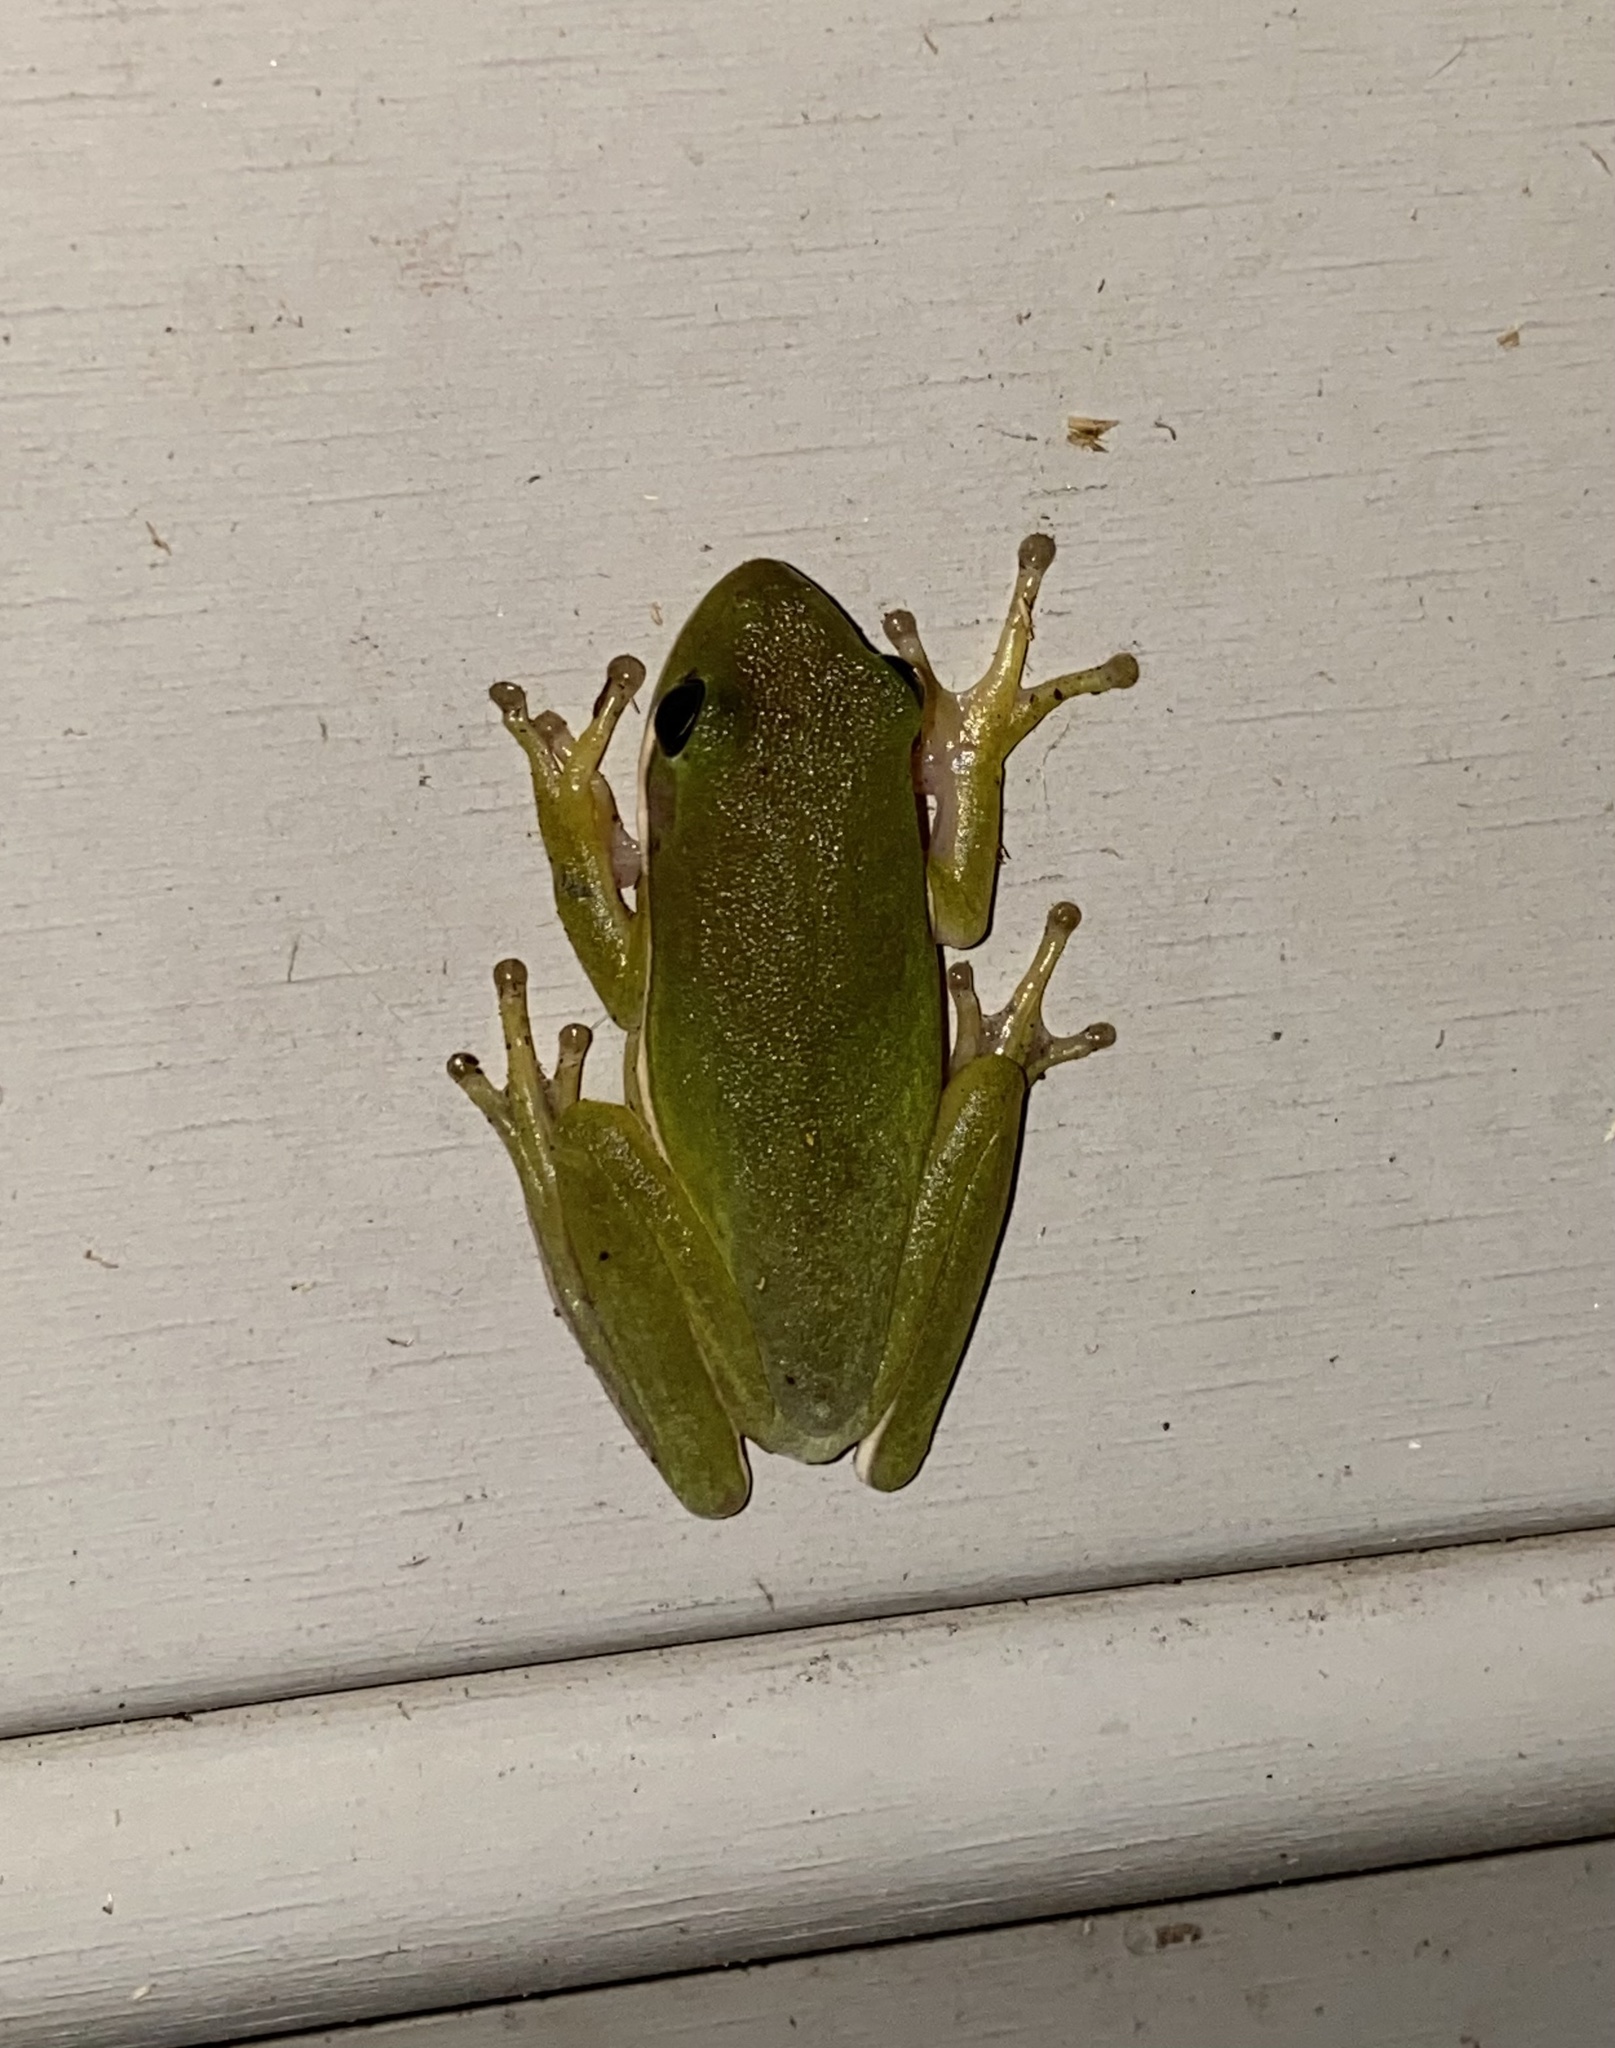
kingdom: Animalia
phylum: Chordata
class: Amphibia
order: Anura
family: Hylidae
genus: Dryophytes
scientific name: Dryophytes cinereus
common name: Green treefrog
